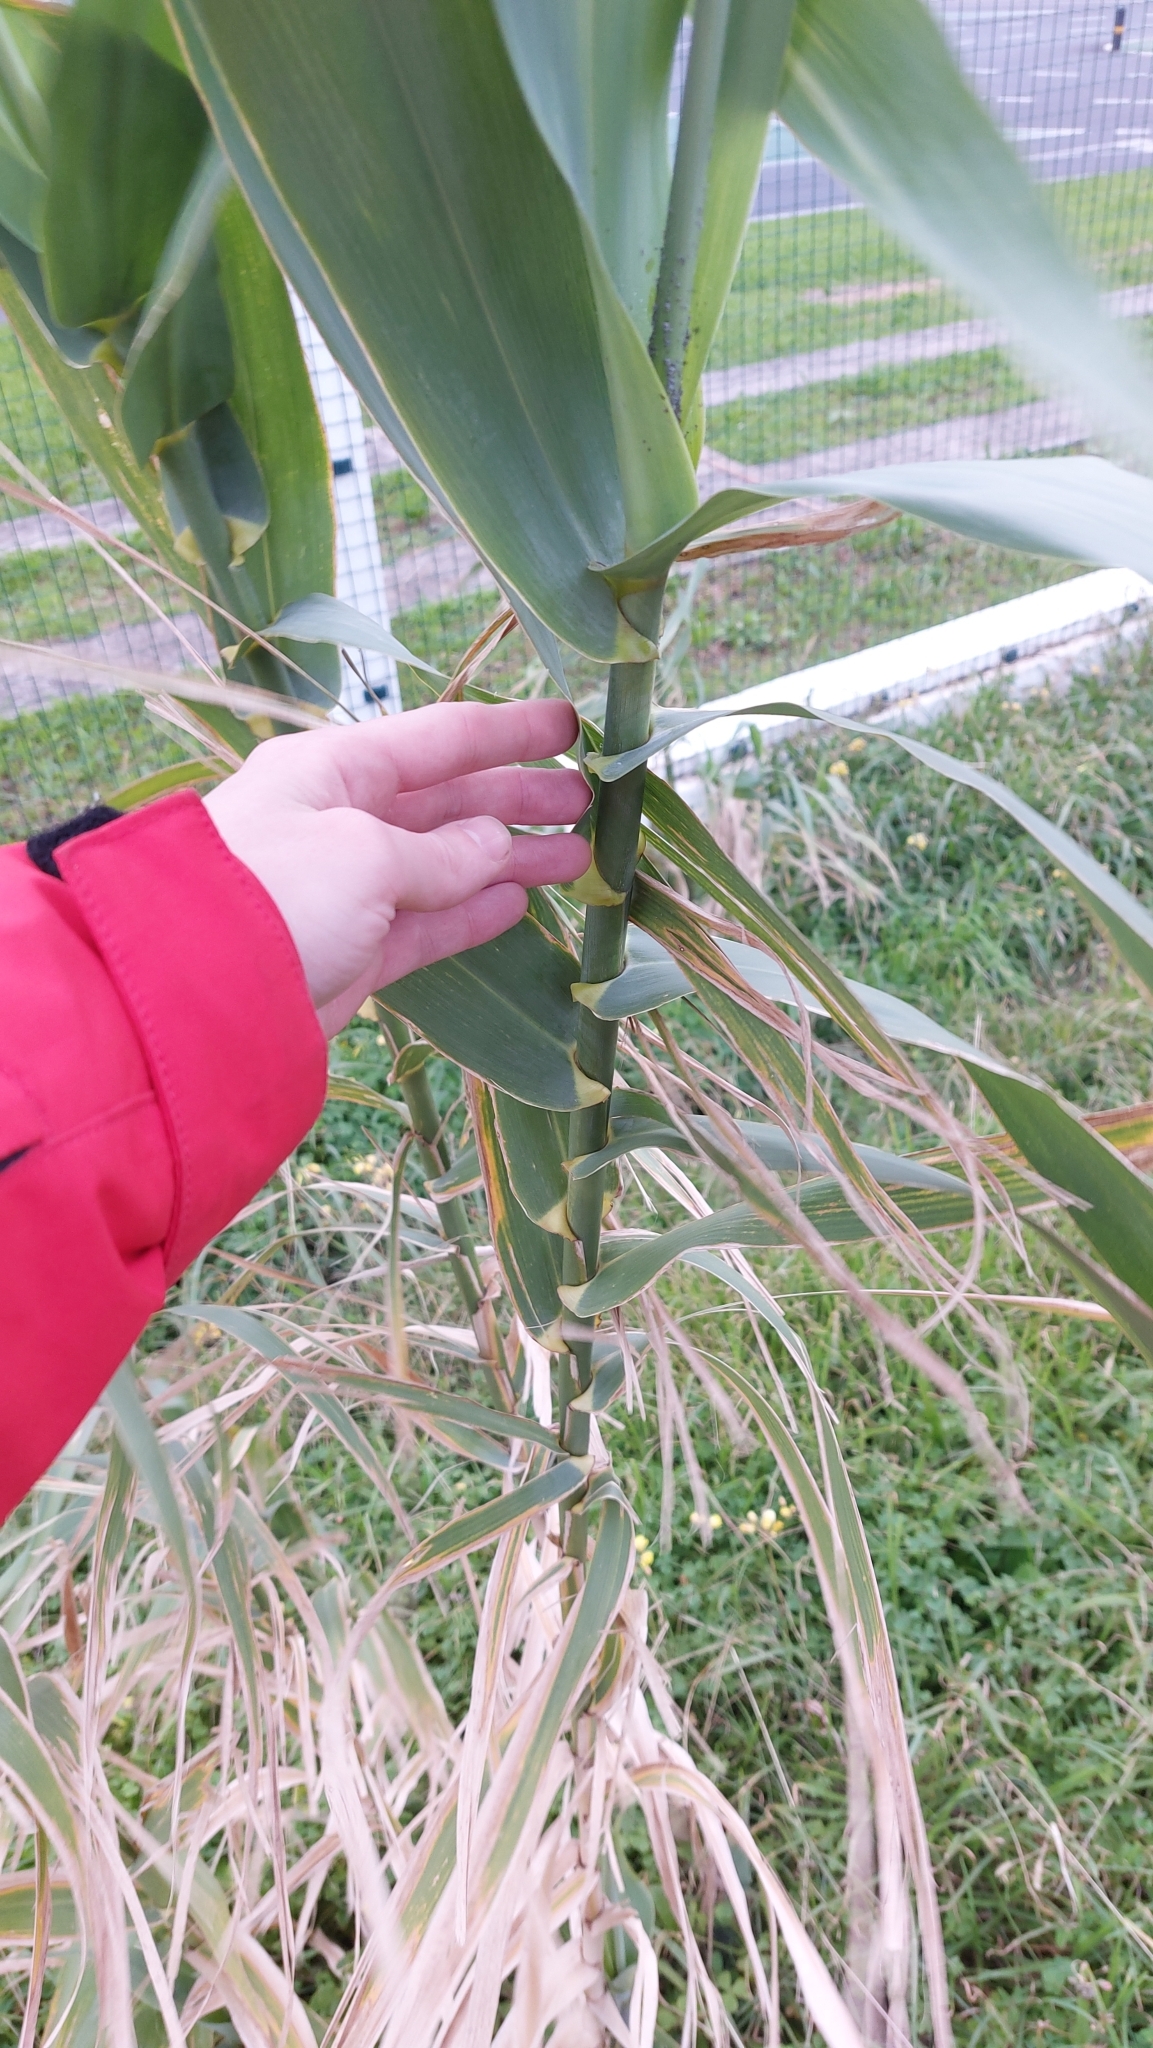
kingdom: Plantae
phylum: Tracheophyta
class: Liliopsida
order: Poales
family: Poaceae
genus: Arundo
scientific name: Arundo donax
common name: Giant reed
